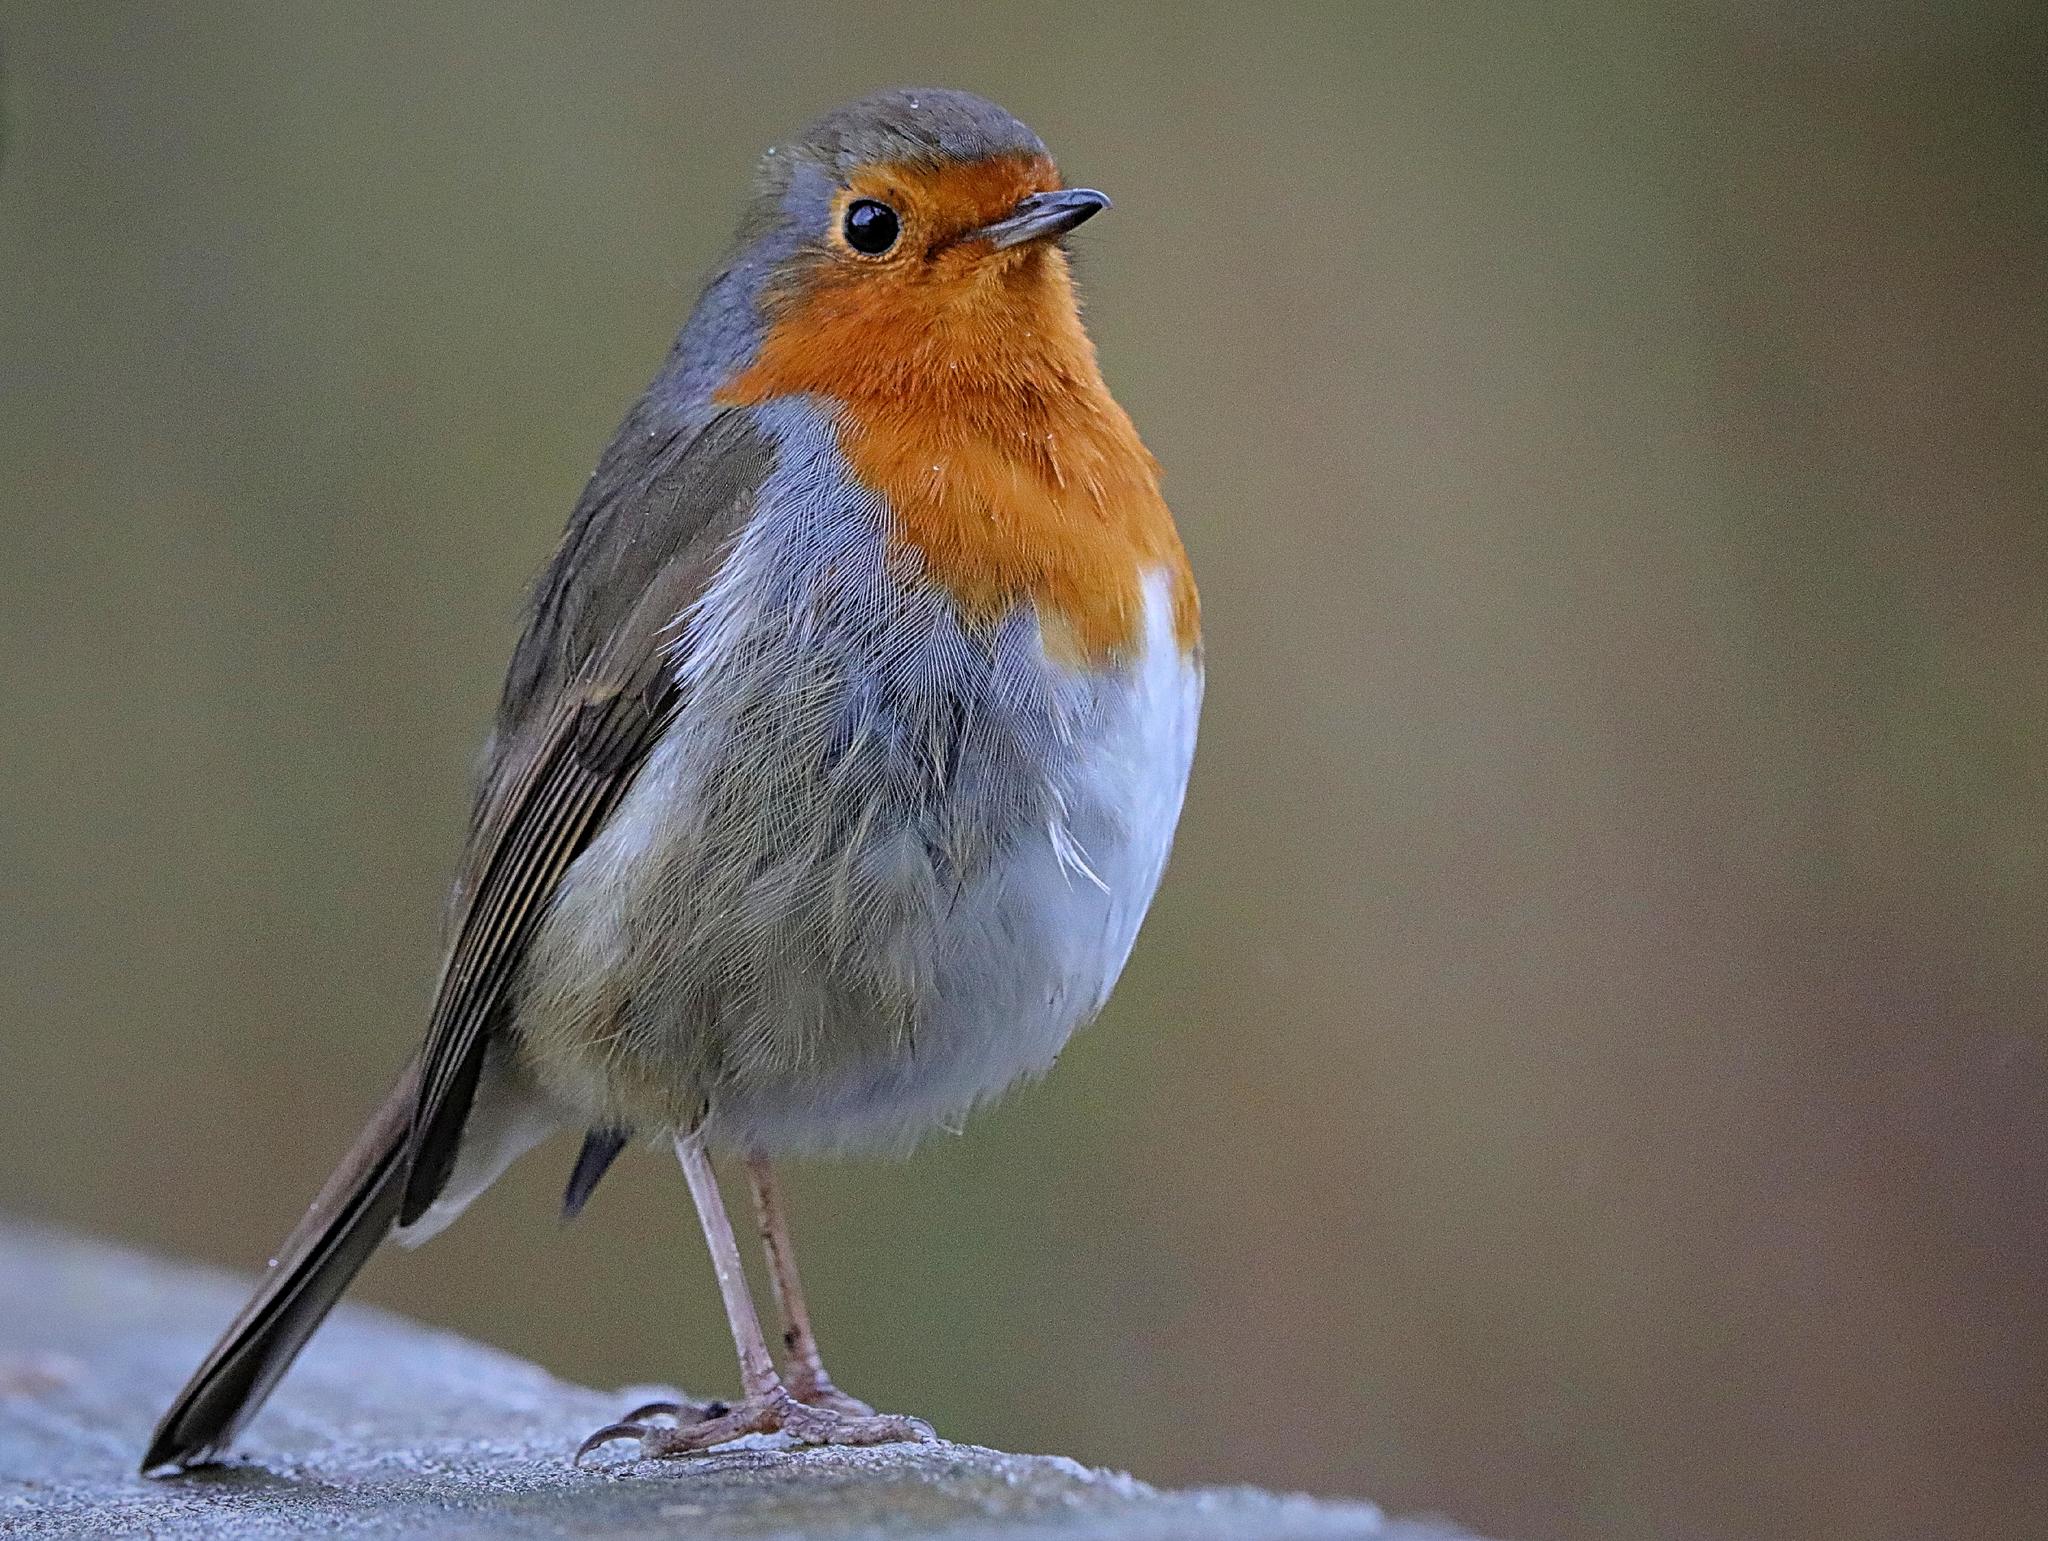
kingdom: Animalia
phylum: Chordata
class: Aves
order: Passeriformes
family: Muscicapidae
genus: Erithacus
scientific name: Erithacus rubecula
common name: European robin
